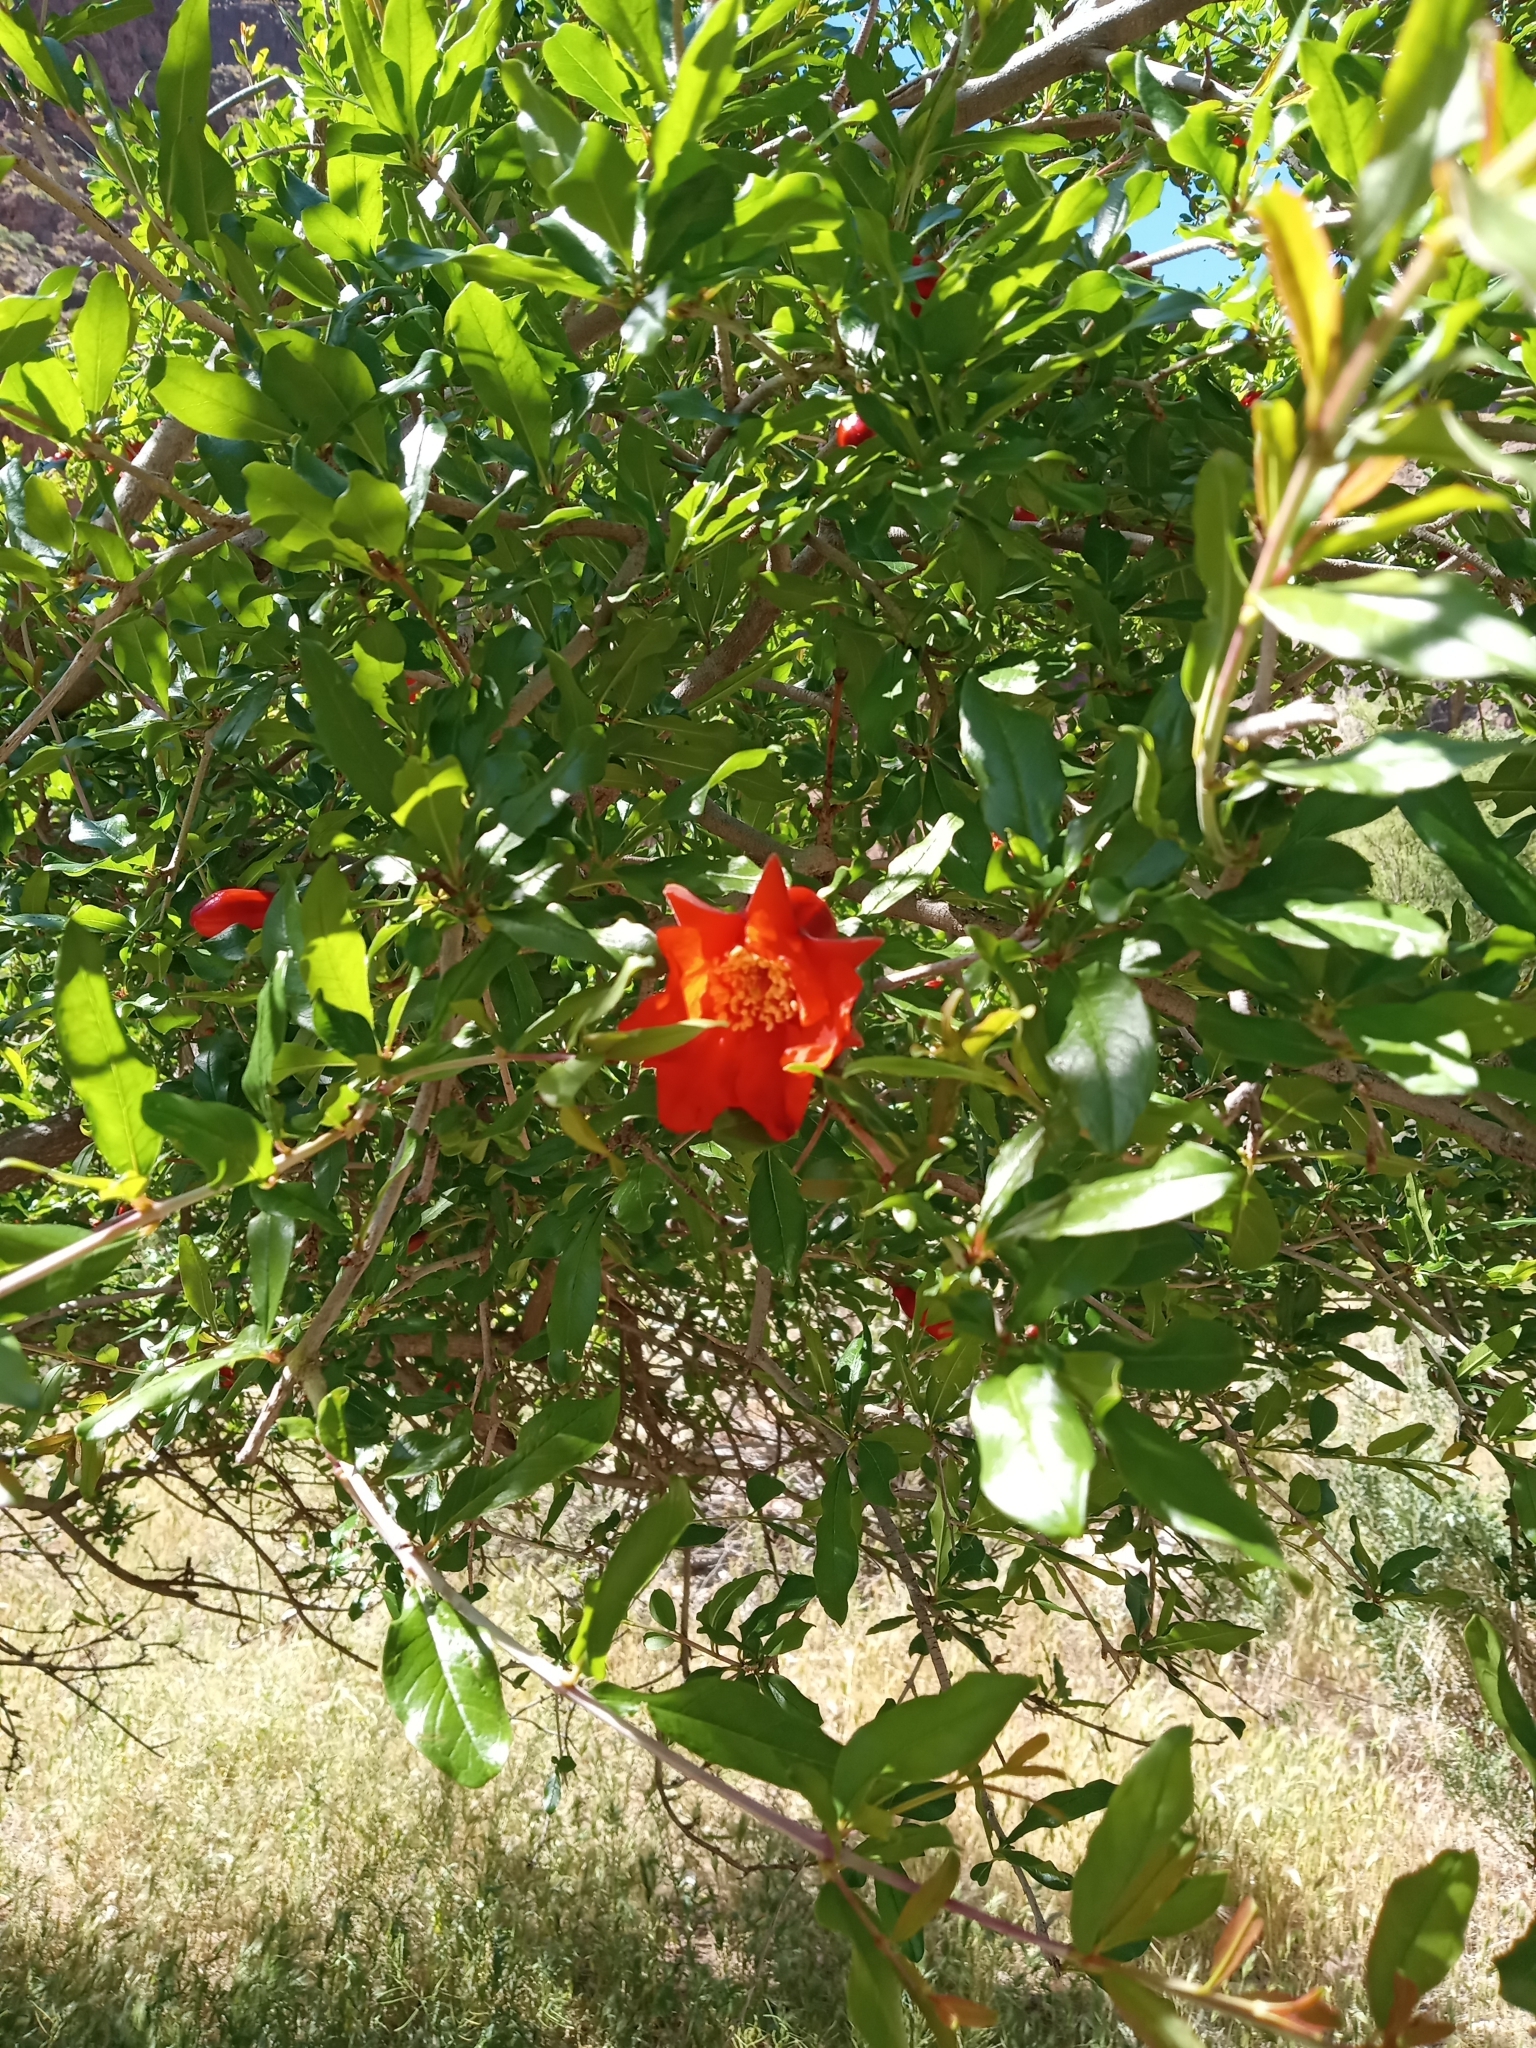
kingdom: Plantae
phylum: Tracheophyta
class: Magnoliopsida
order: Myrtales
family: Lythraceae
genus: Punica
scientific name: Punica granatum
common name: Pomegranate
